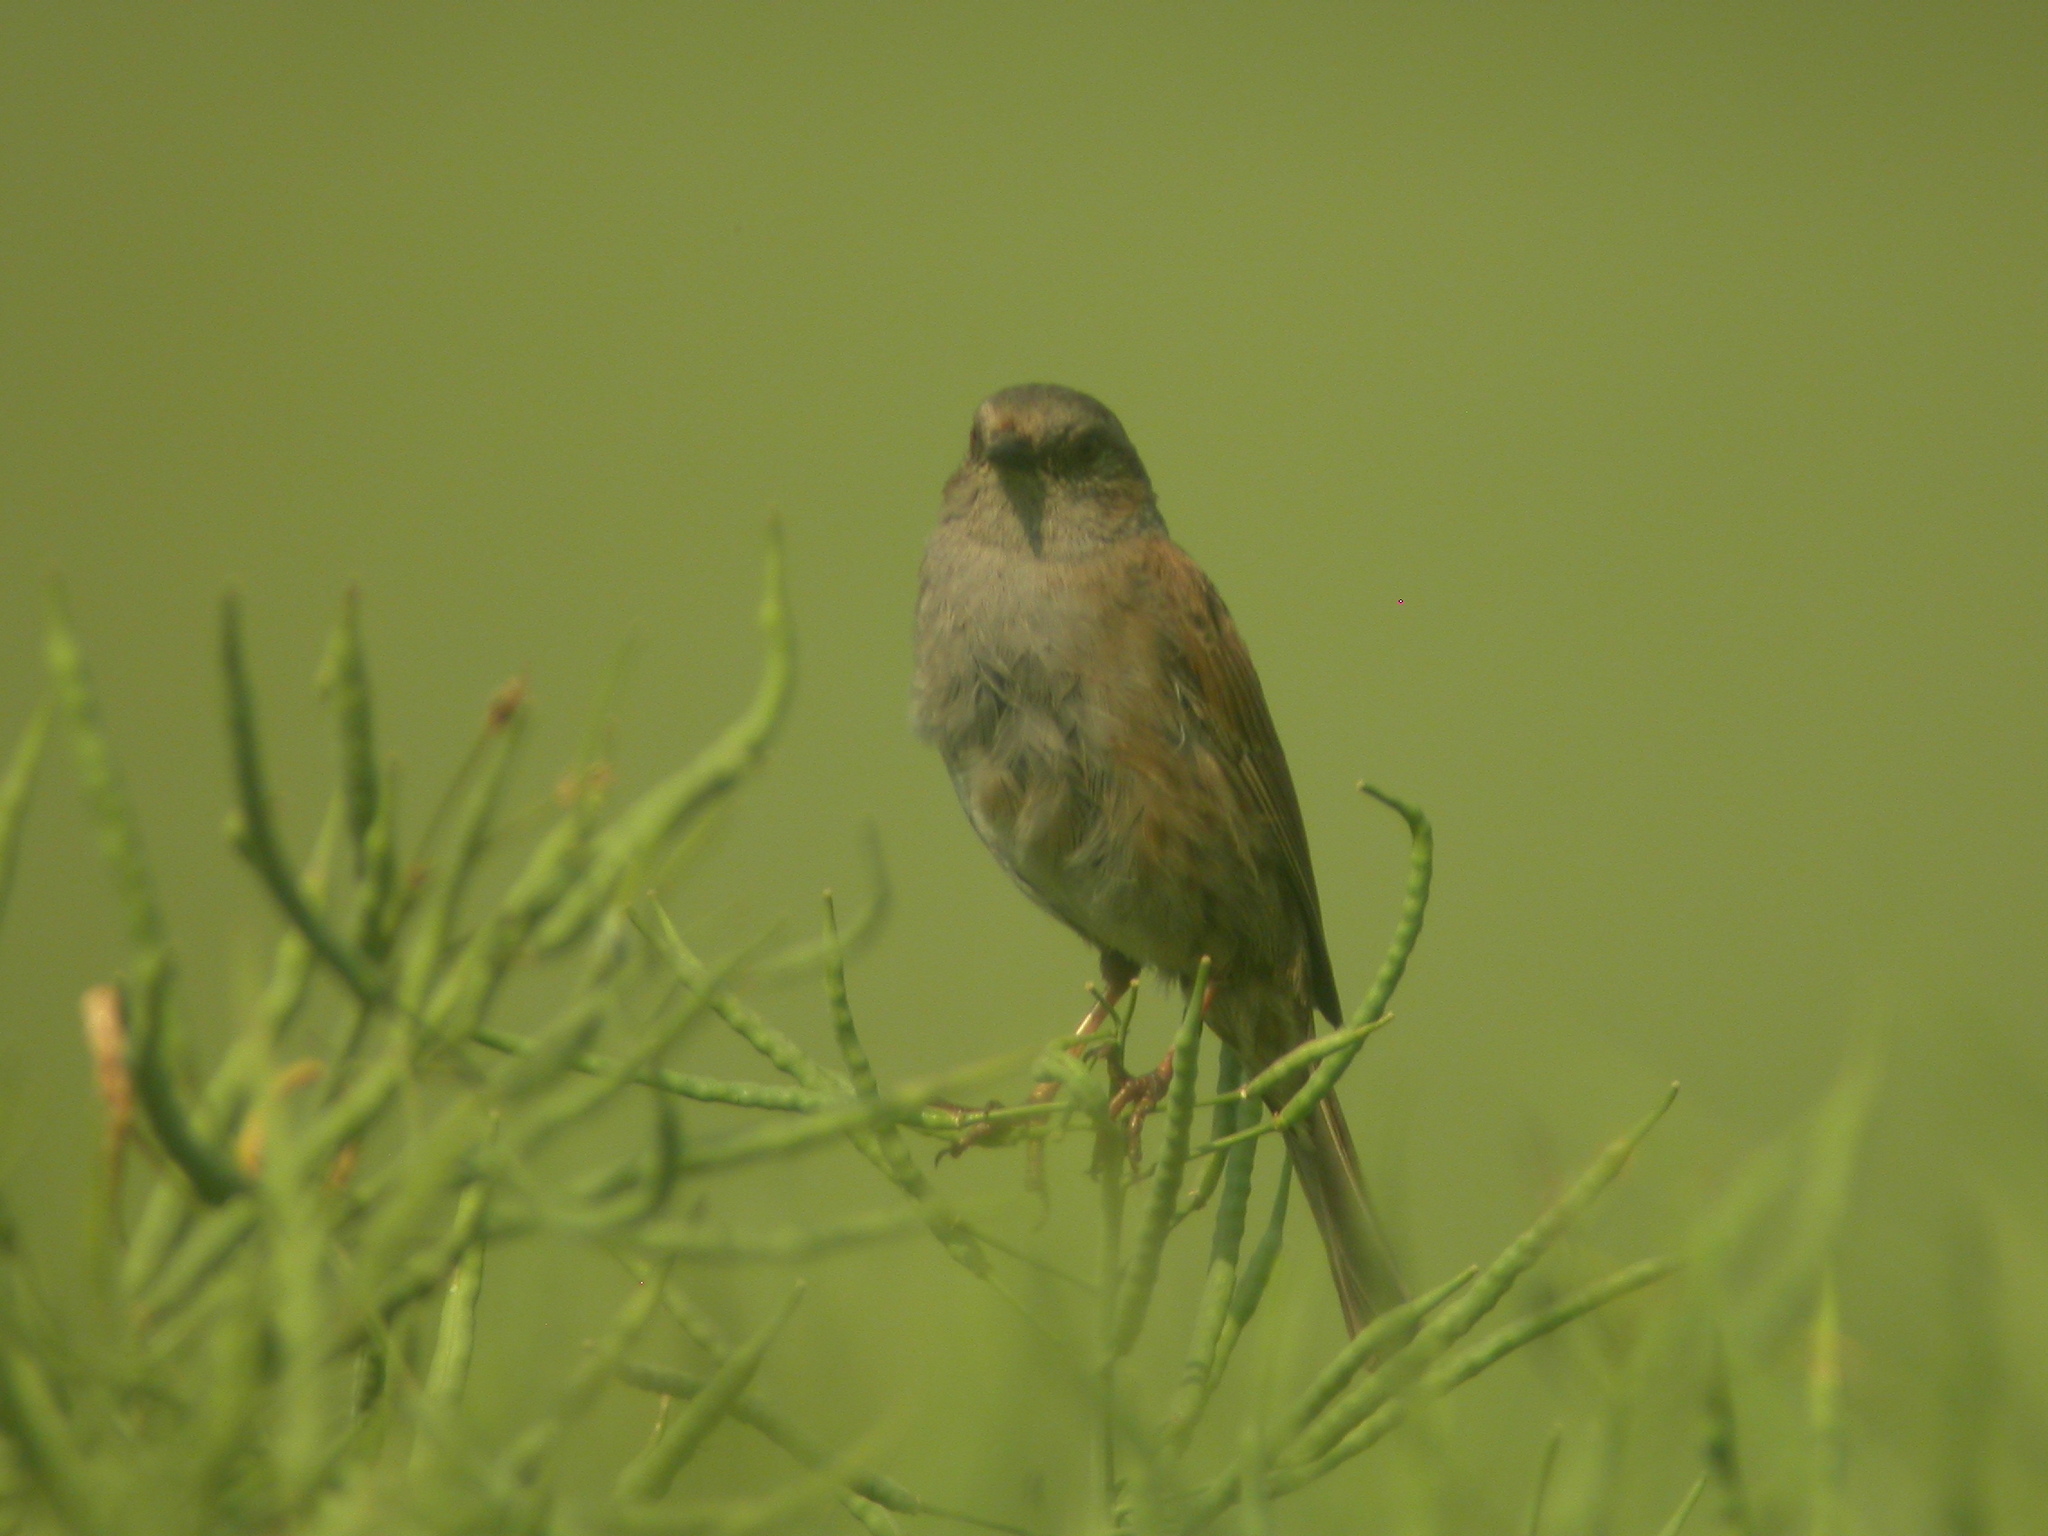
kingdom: Animalia
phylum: Chordata
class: Aves
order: Passeriformes
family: Prunellidae
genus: Prunella
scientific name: Prunella modularis
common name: Dunnock
